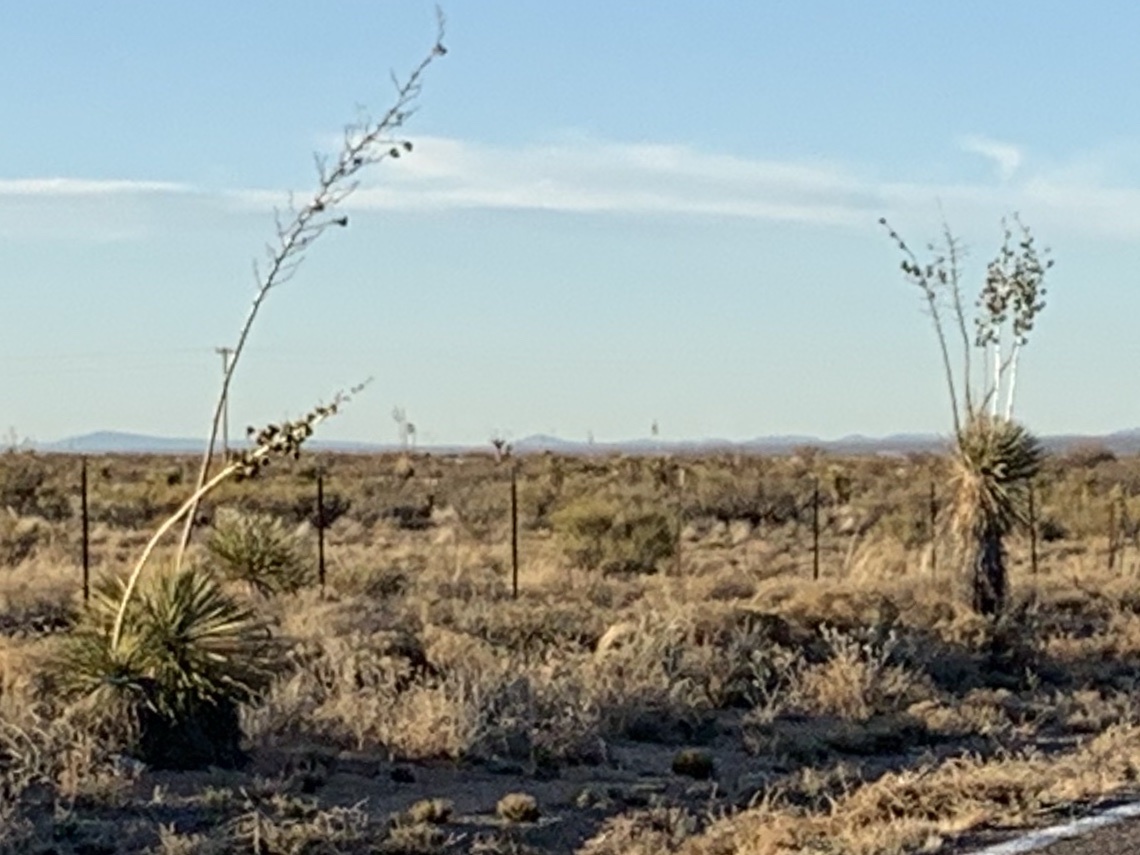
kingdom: Plantae
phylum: Tracheophyta
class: Liliopsida
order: Asparagales
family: Asparagaceae
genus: Yucca
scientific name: Yucca elata
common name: Palmella
